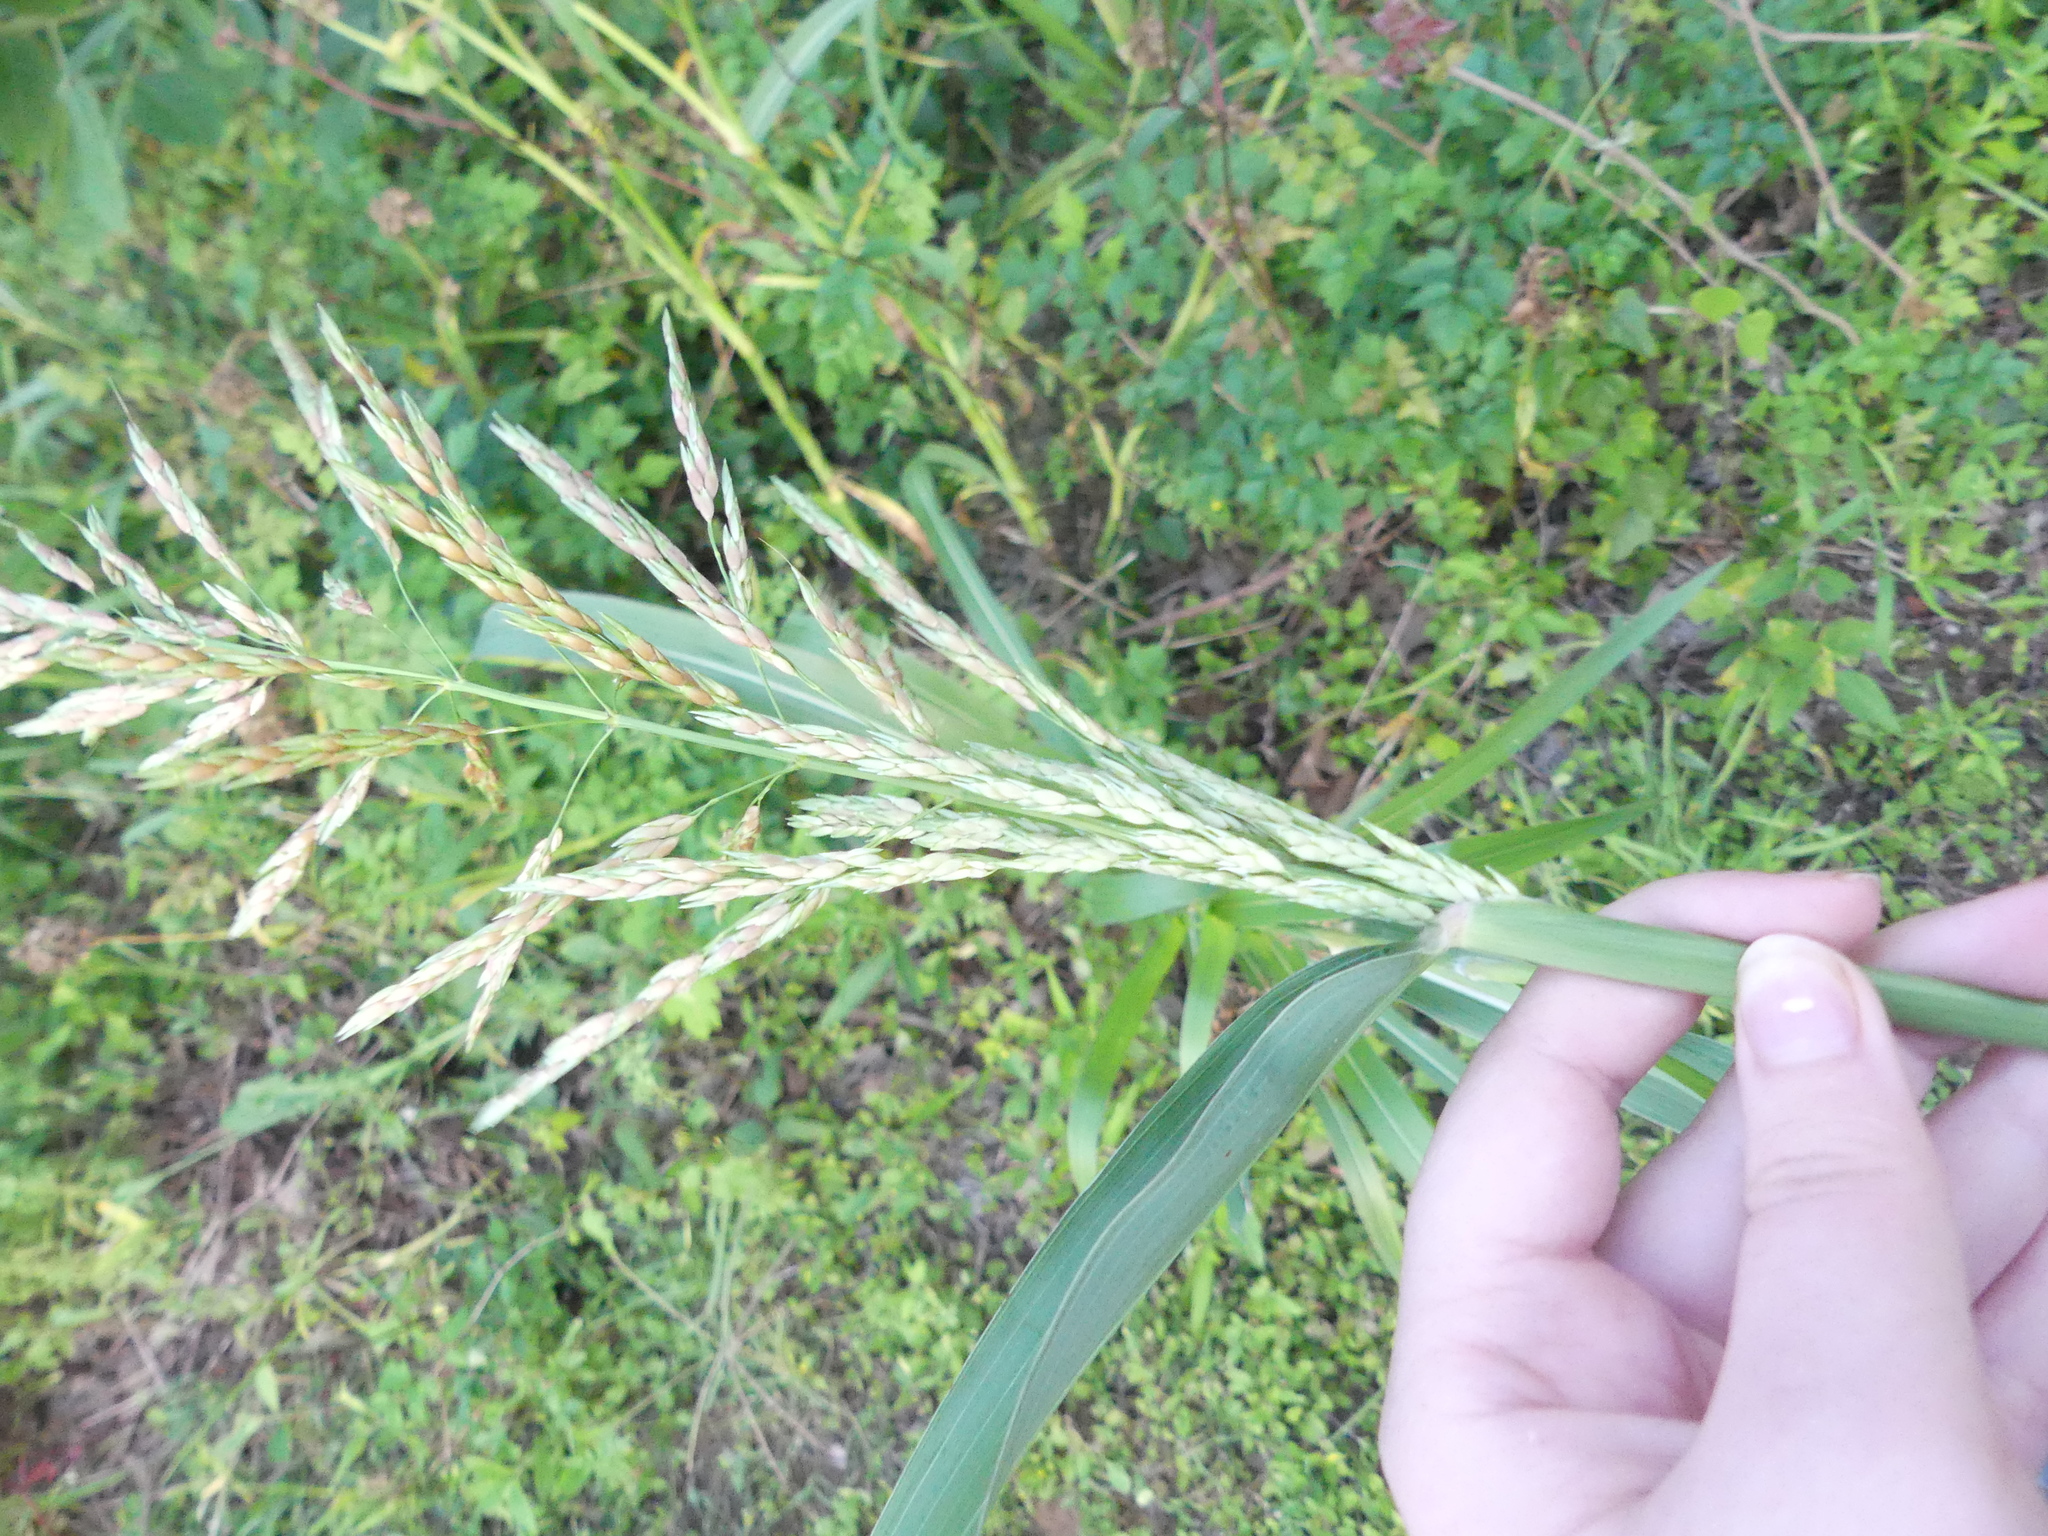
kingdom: Plantae
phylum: Tracheophyta
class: Liliopsida
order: Poales
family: Poaceae
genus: Sorghum
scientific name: Sorghum halepense
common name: Johnson-grass
